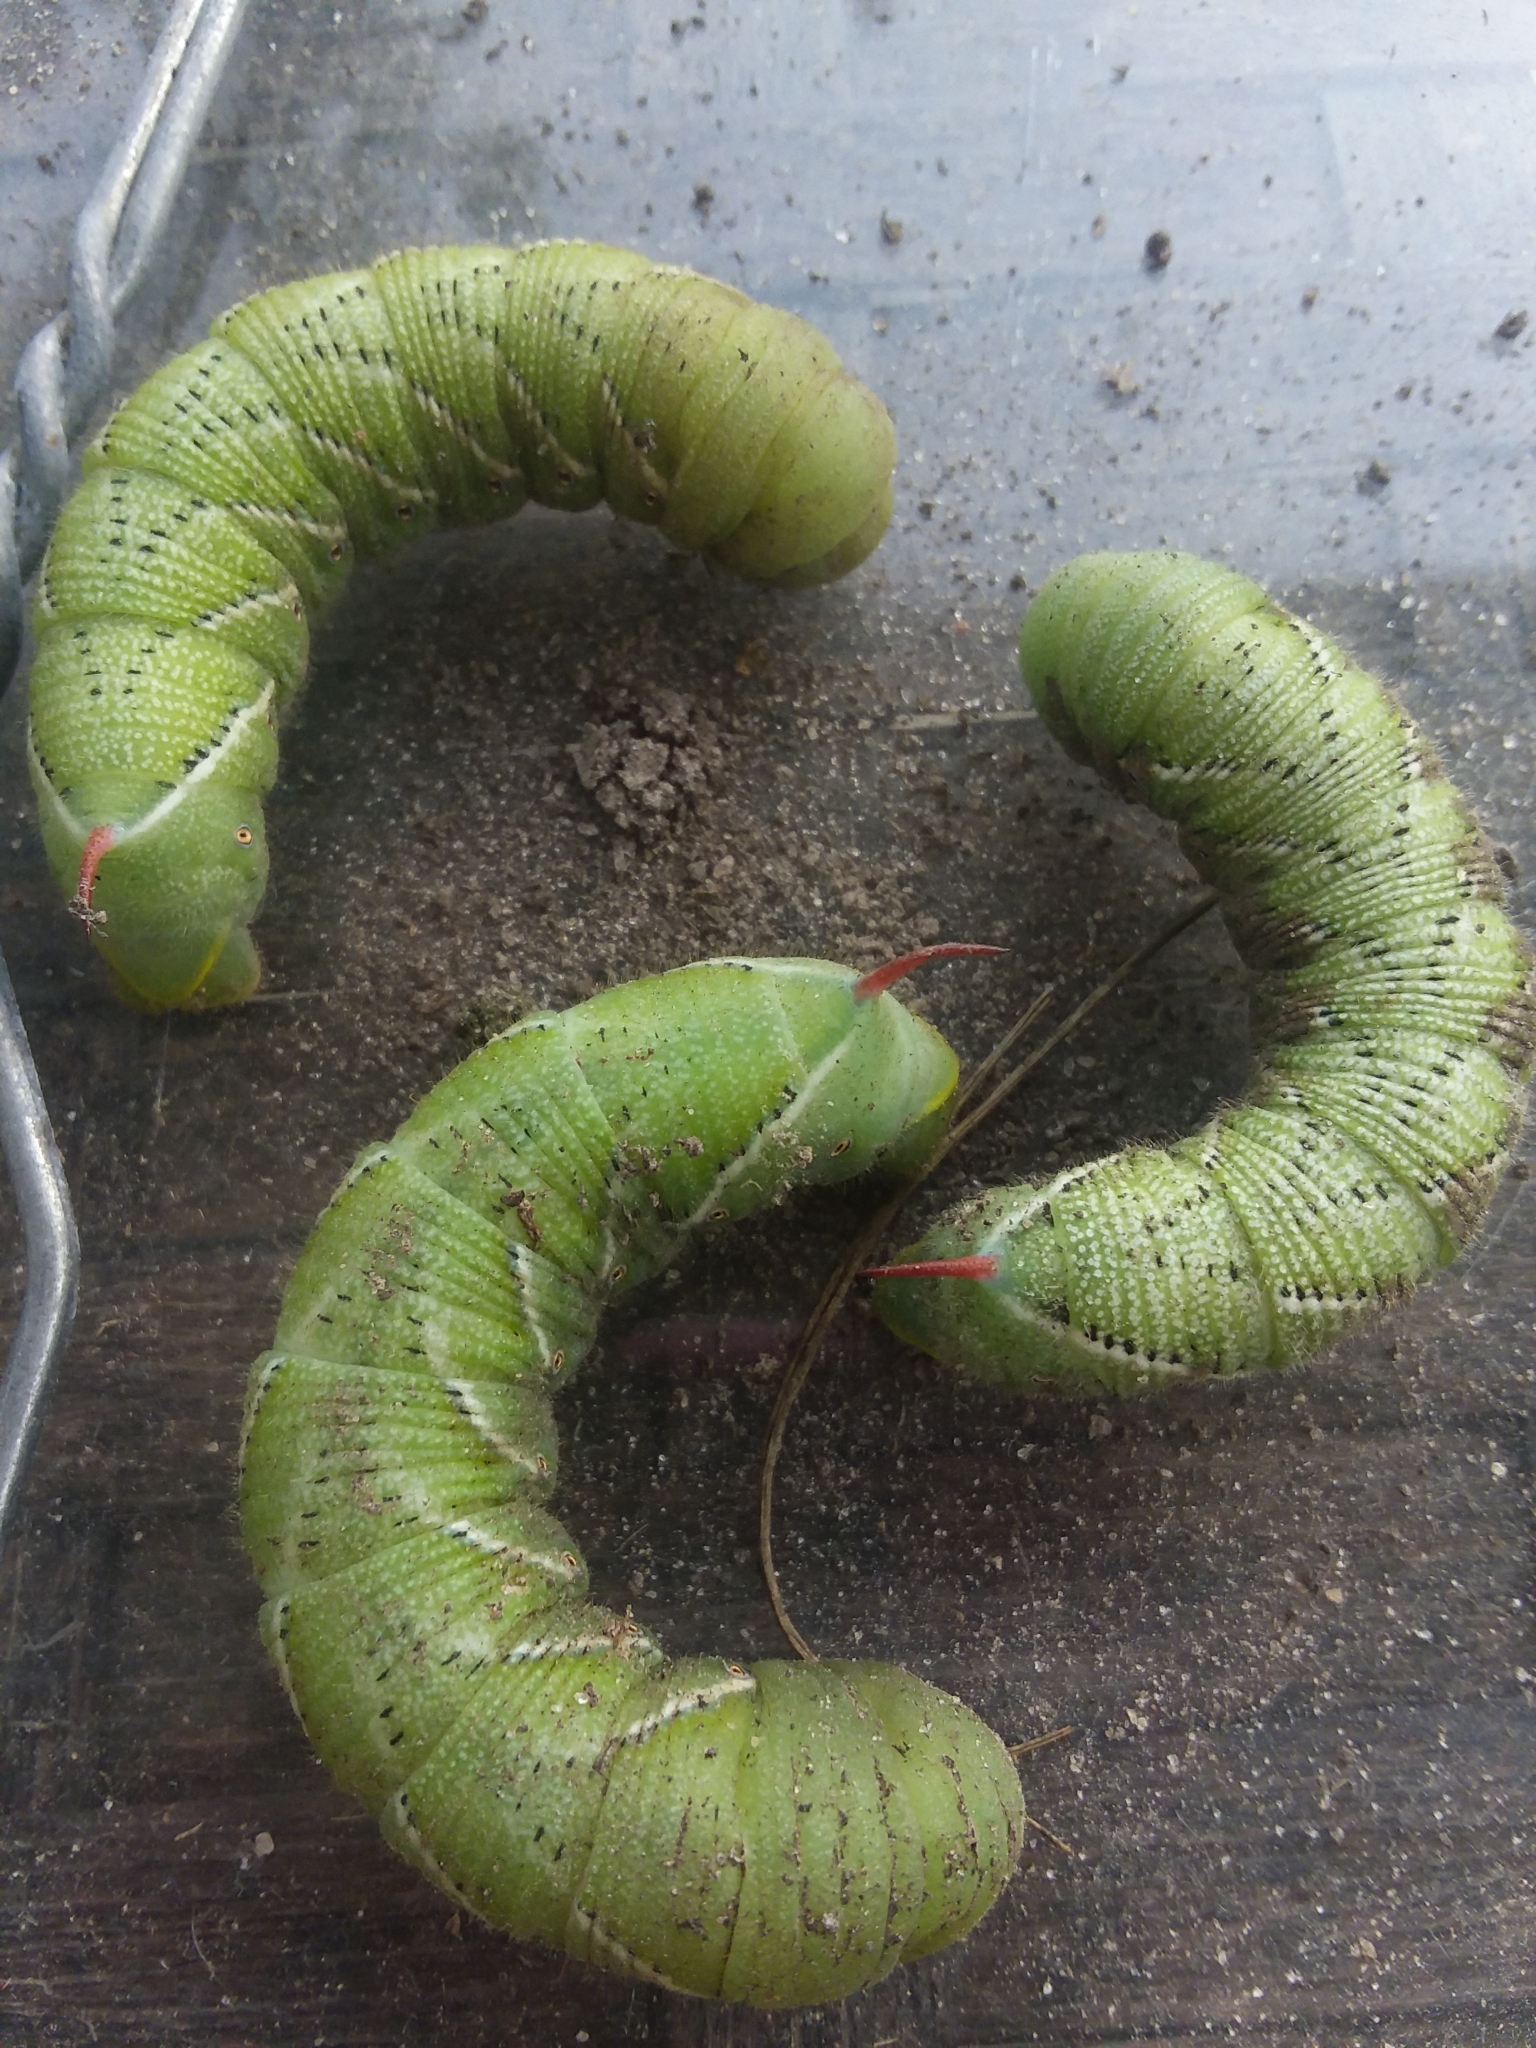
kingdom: Animalia
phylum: Arthropoda
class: Insecta
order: Lepidoptera
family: Sphingidae
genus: Manduca
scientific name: Manduca sexta
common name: Carolina sphinx
